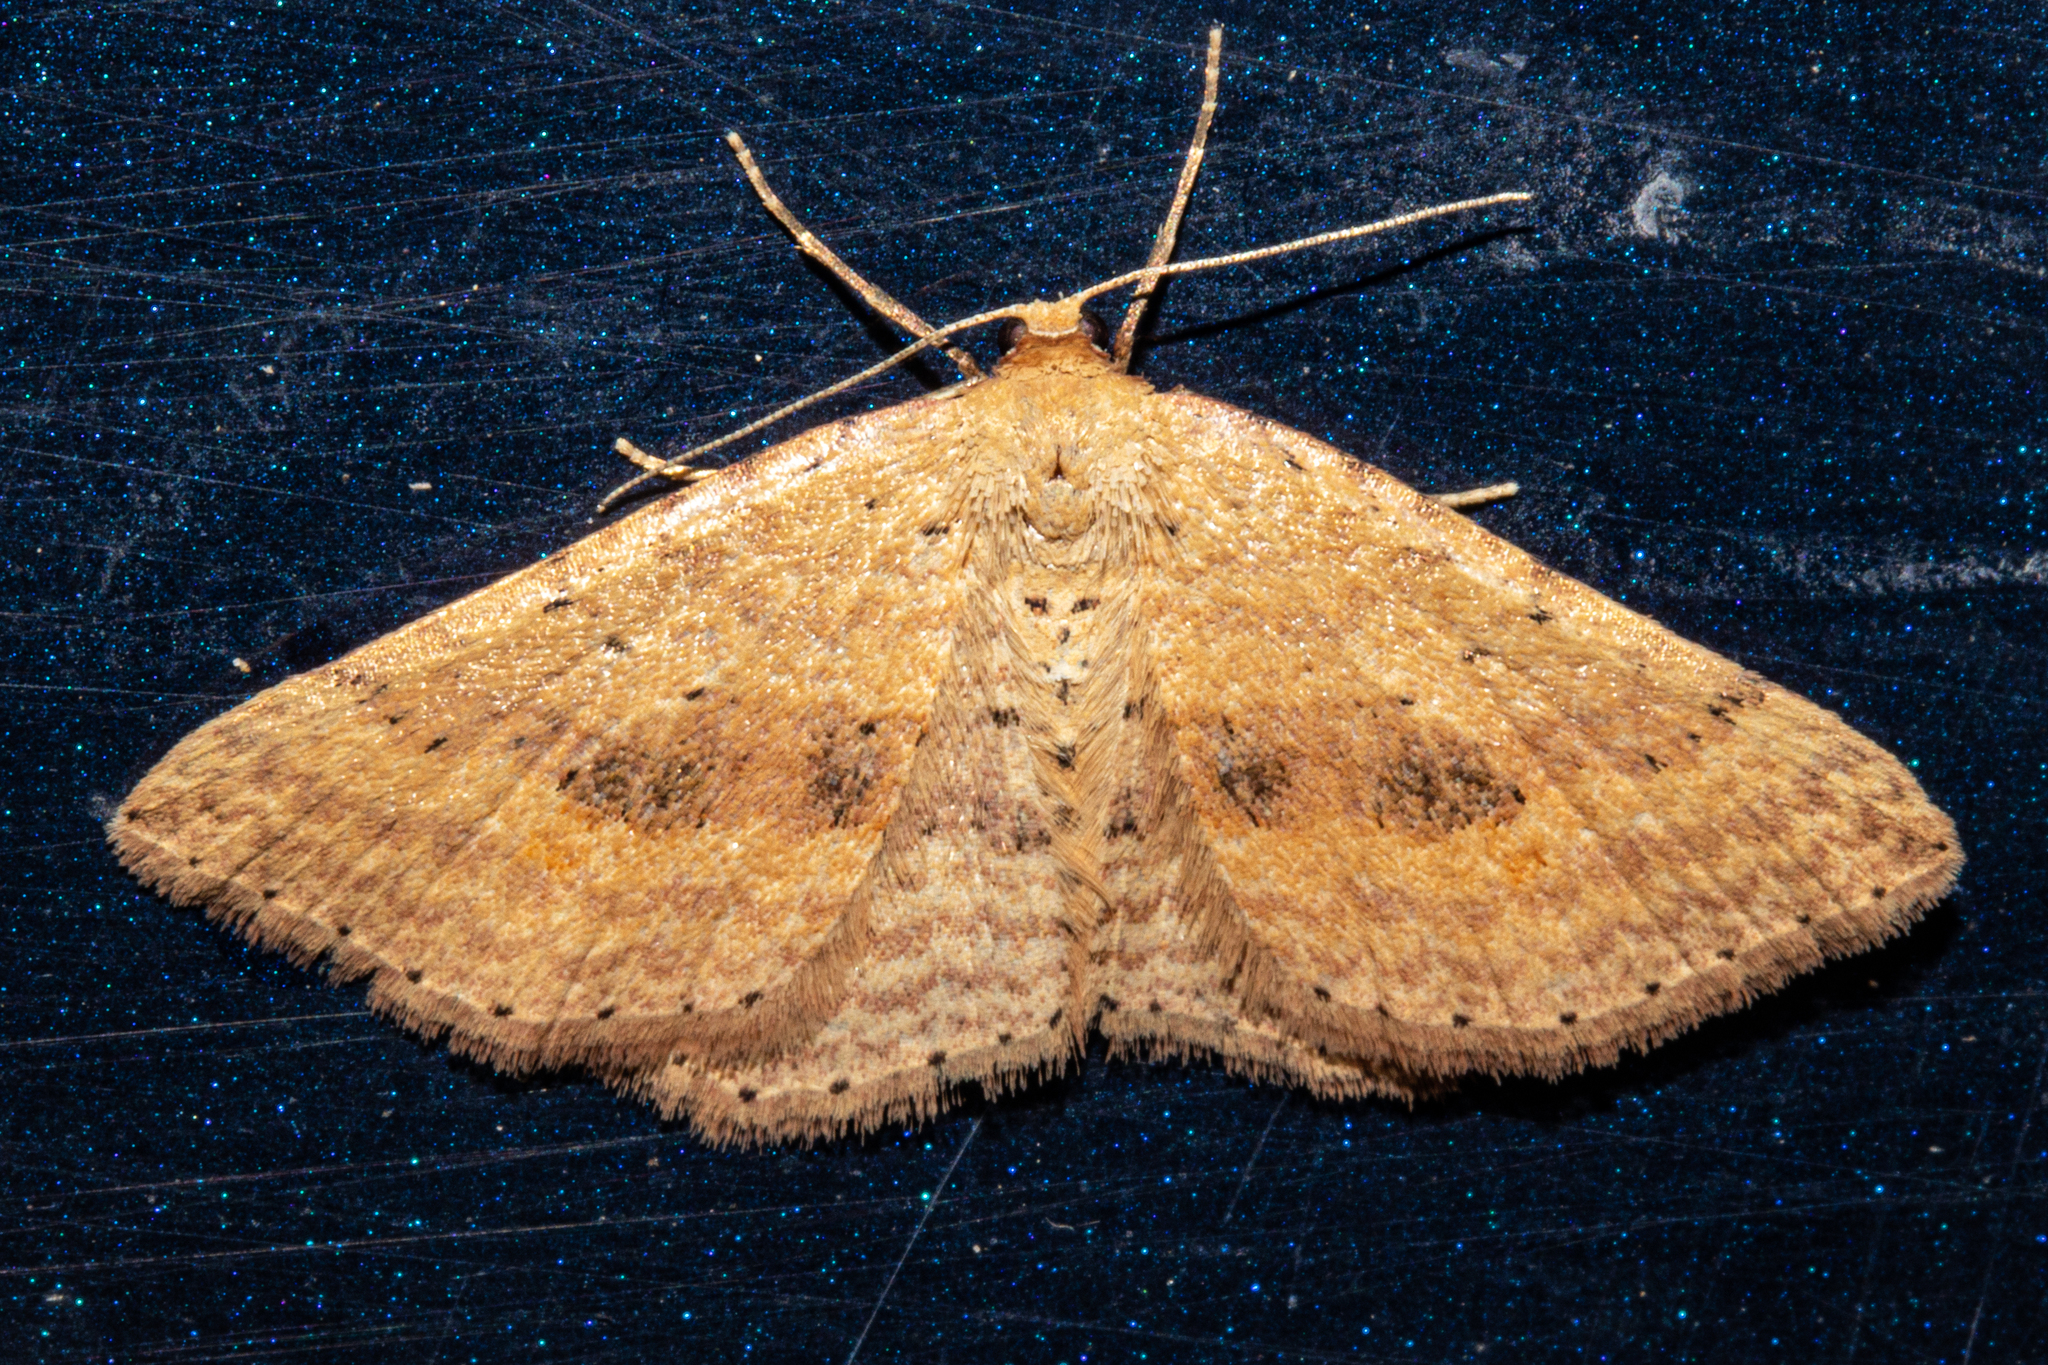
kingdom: Animalia
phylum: Arthropoda
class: Insecta
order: Lepidoptera
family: Geometridae
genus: Epicyme
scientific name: Epicyme rubropunctaria
